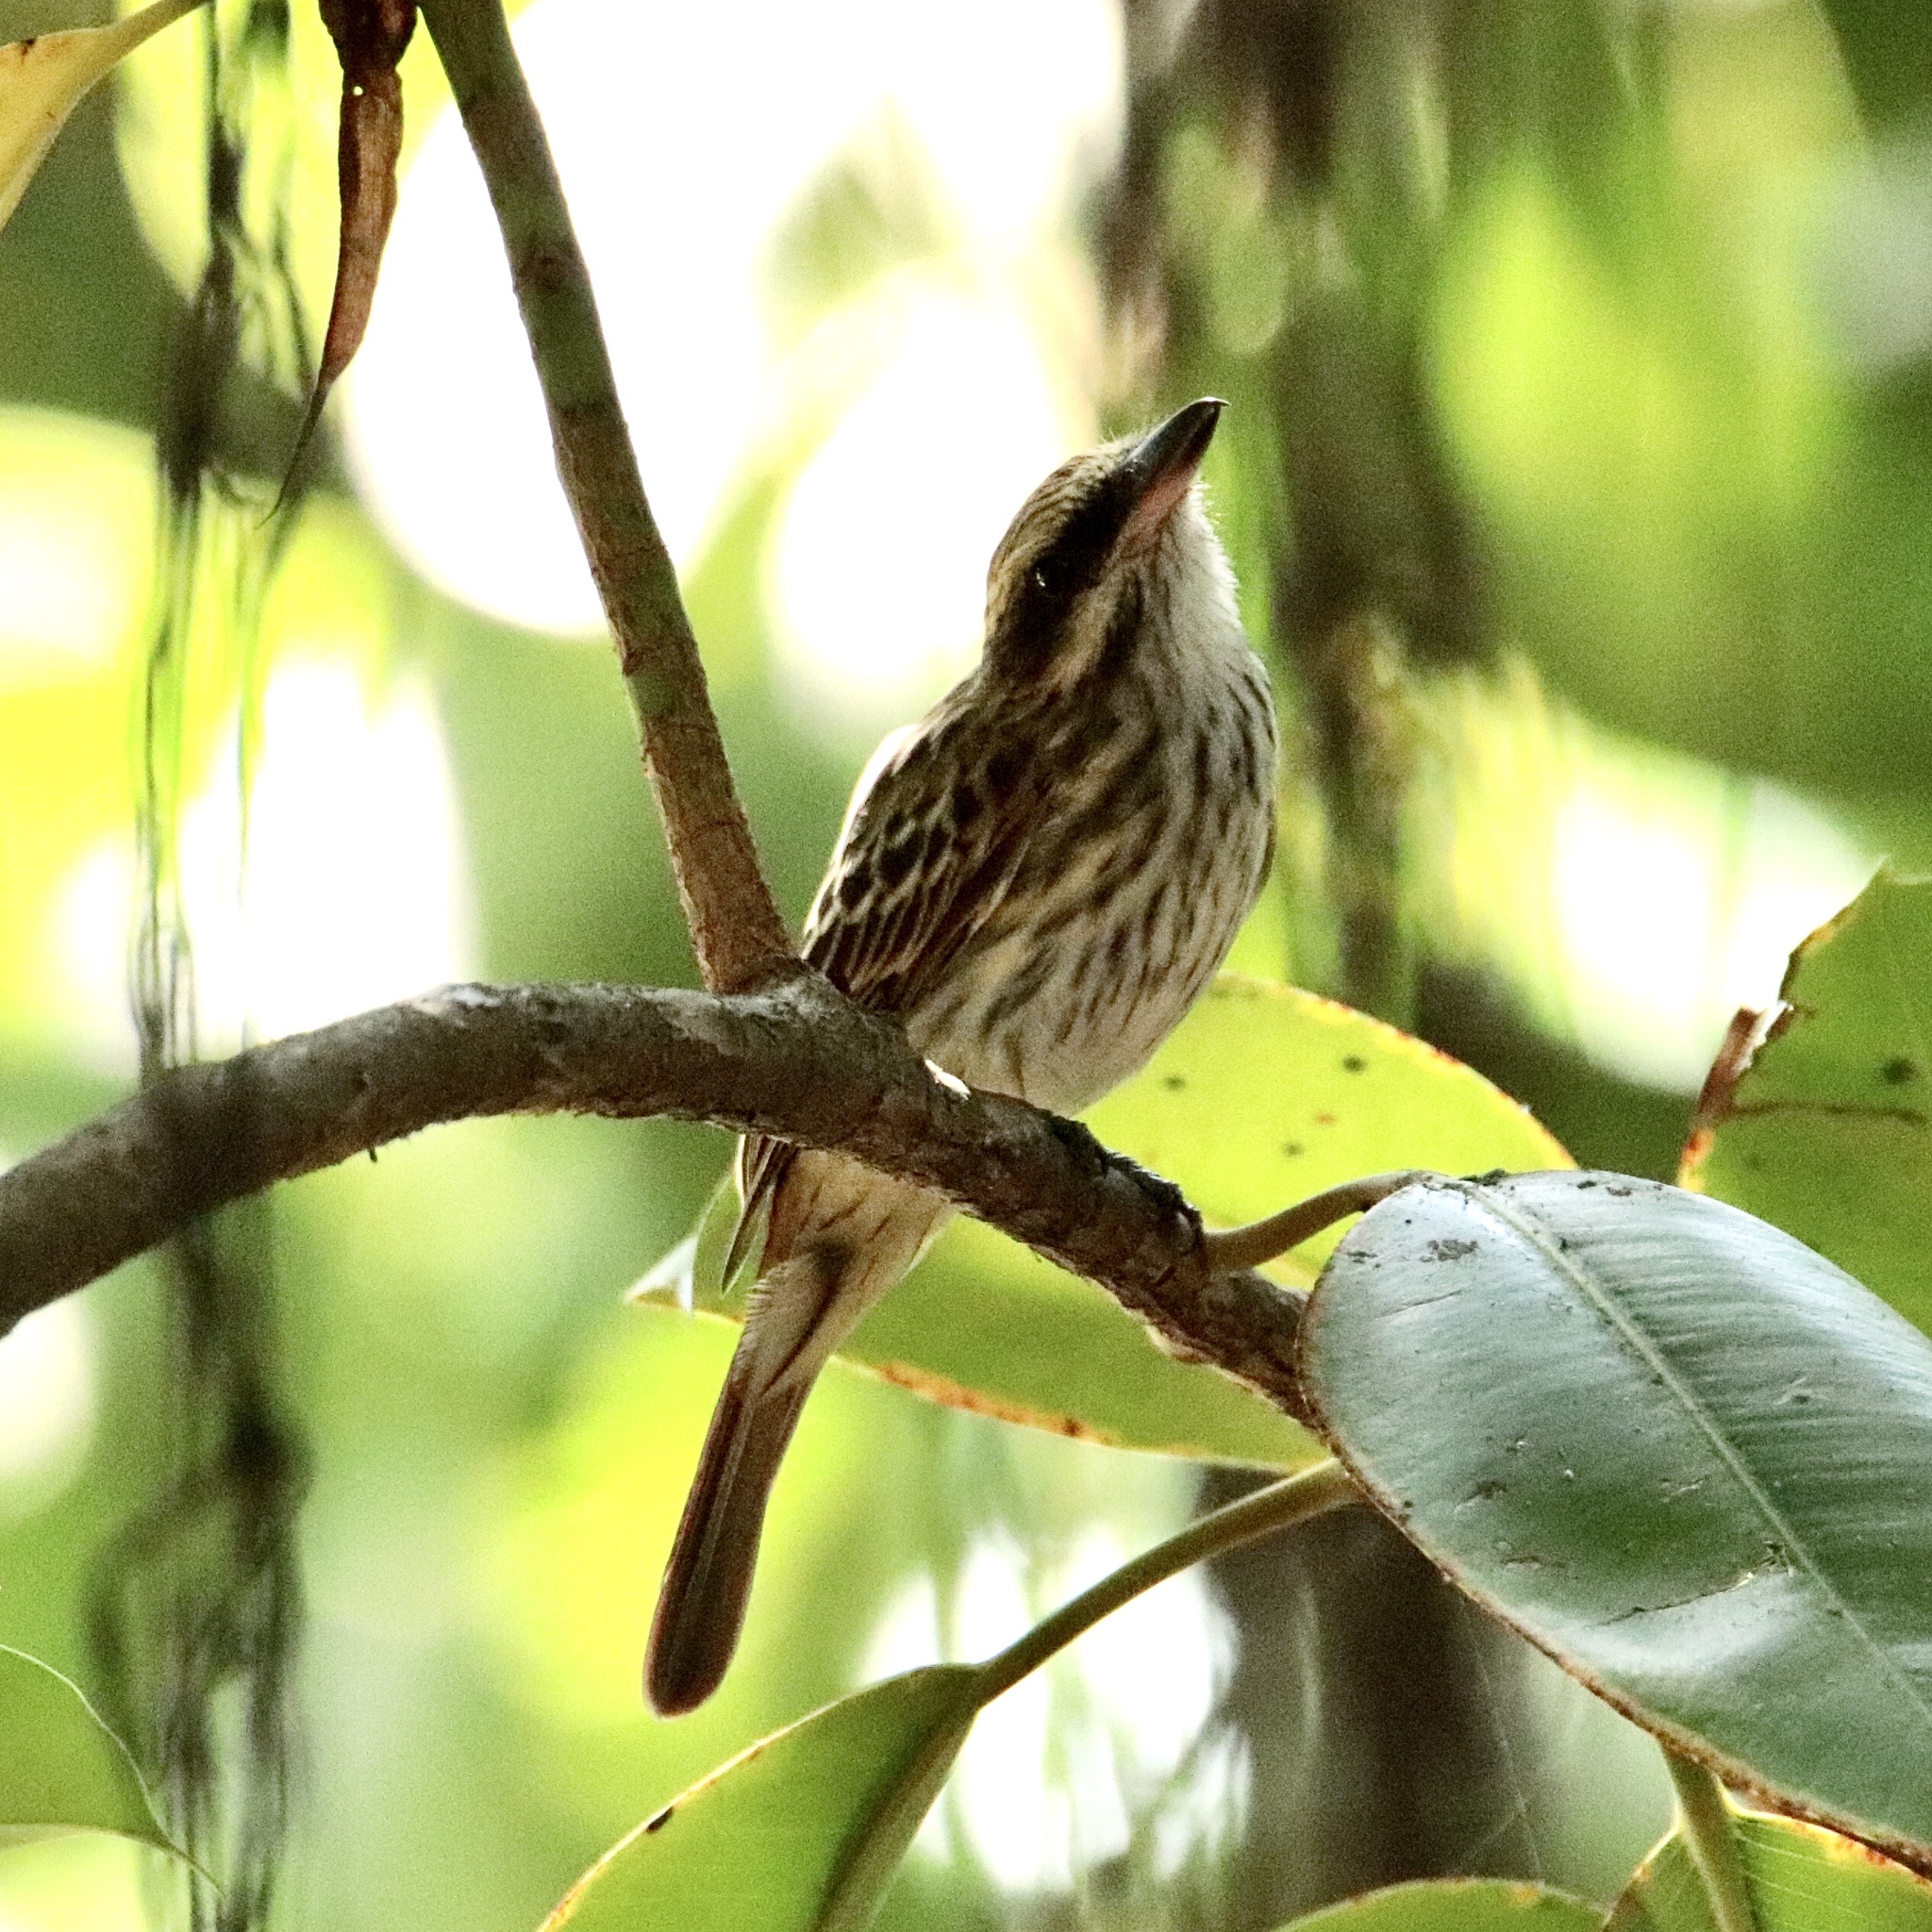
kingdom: Animalia
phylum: Chordata
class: Aves
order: Passeriformes
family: Tyrannidae
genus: Myiodynastes
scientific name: Myiodynastes maculatus
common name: Streaked flycatcher
